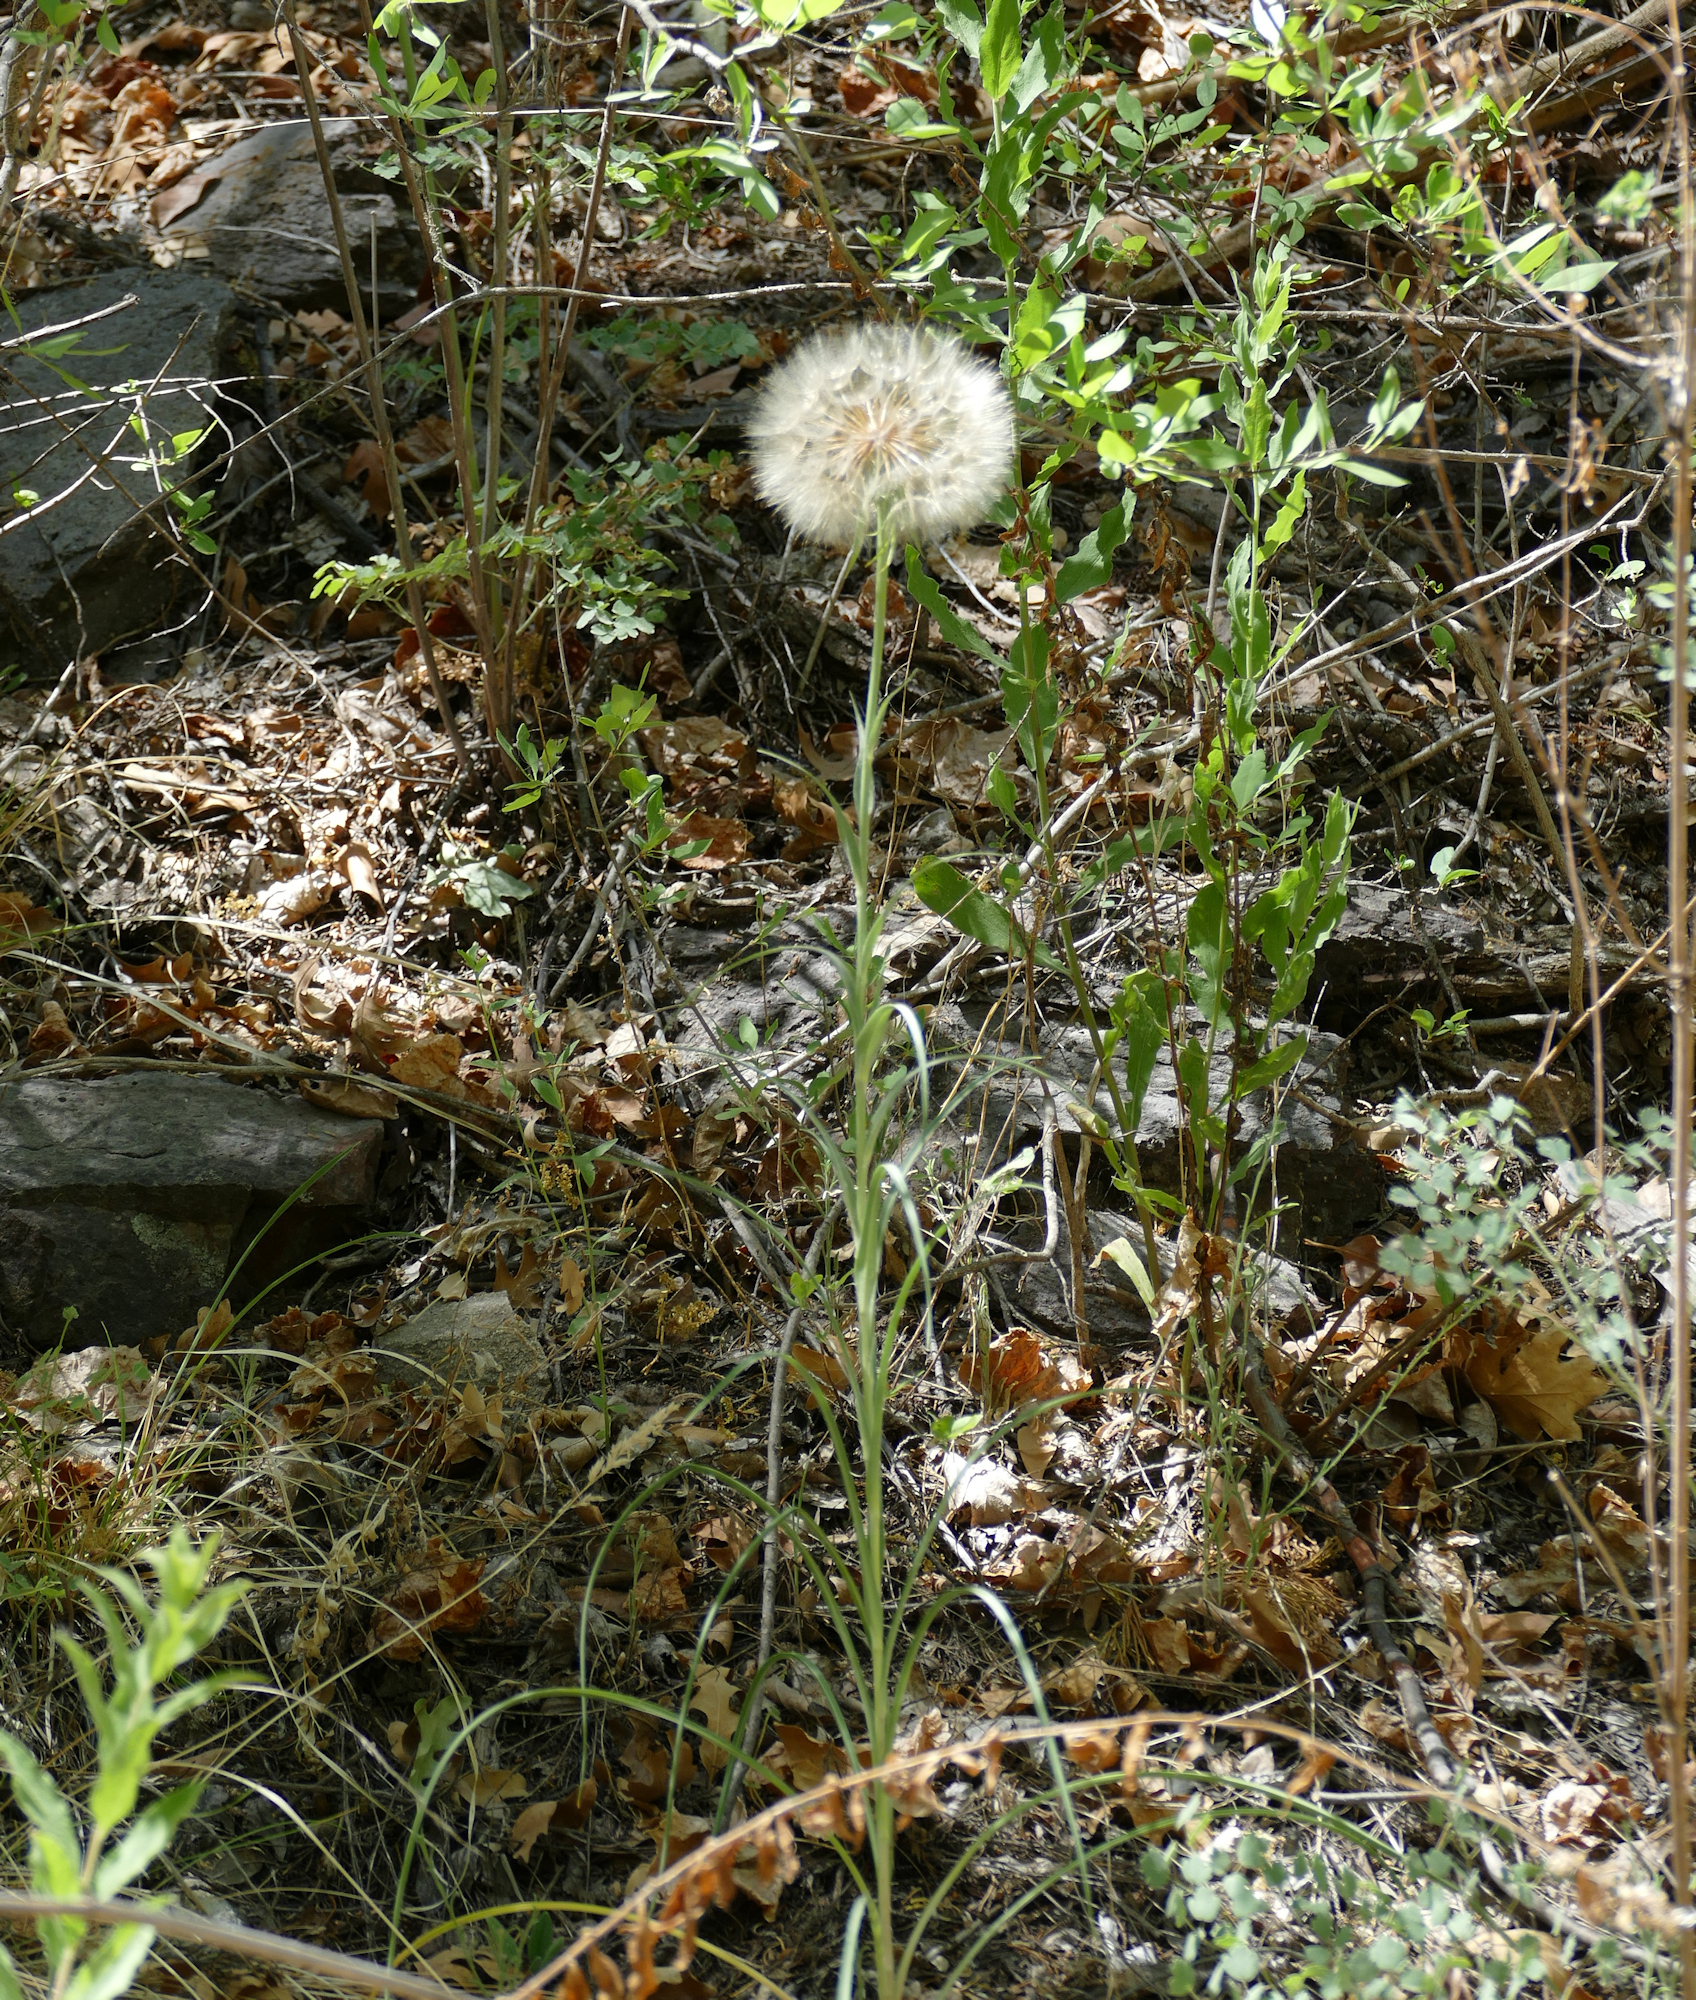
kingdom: Plantae
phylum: Tracheophyta
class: Magnoliopsida
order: Asterales
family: Asteraceae
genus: Tragopogon
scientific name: Tragopogon dubius
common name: Yellow salsify
